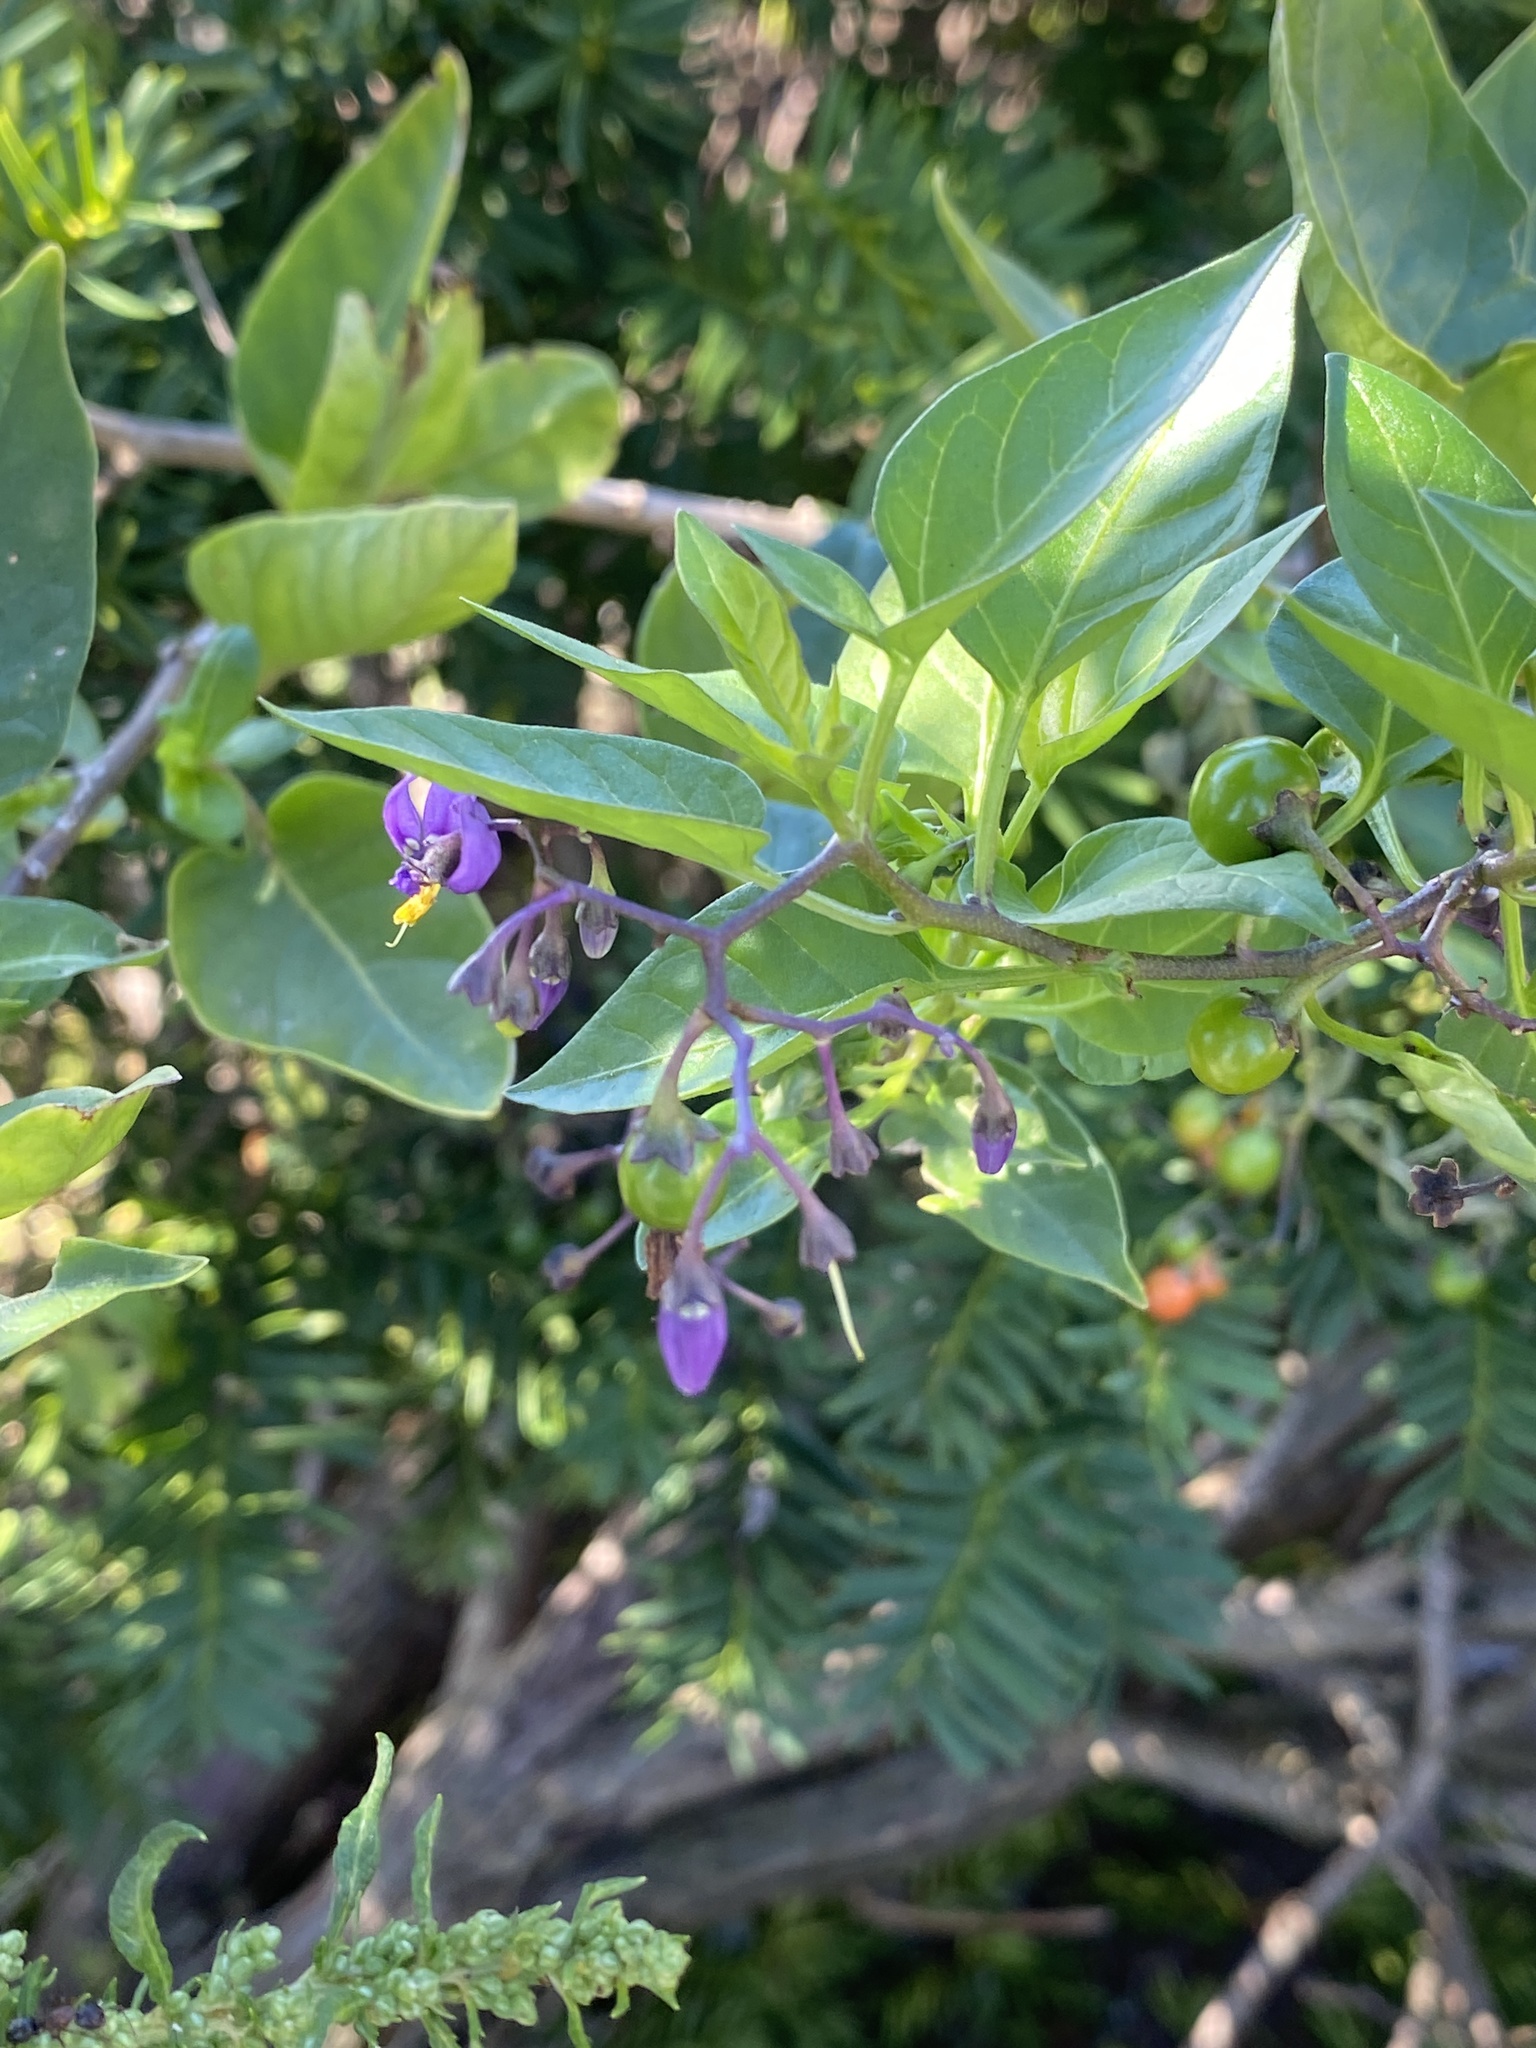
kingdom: Plantae
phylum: Tracheophyta
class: Magnoliopsida
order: Solanales
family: Solanaceae
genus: Solanum
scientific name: Solanum dulcamara
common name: Climbing nightshade
